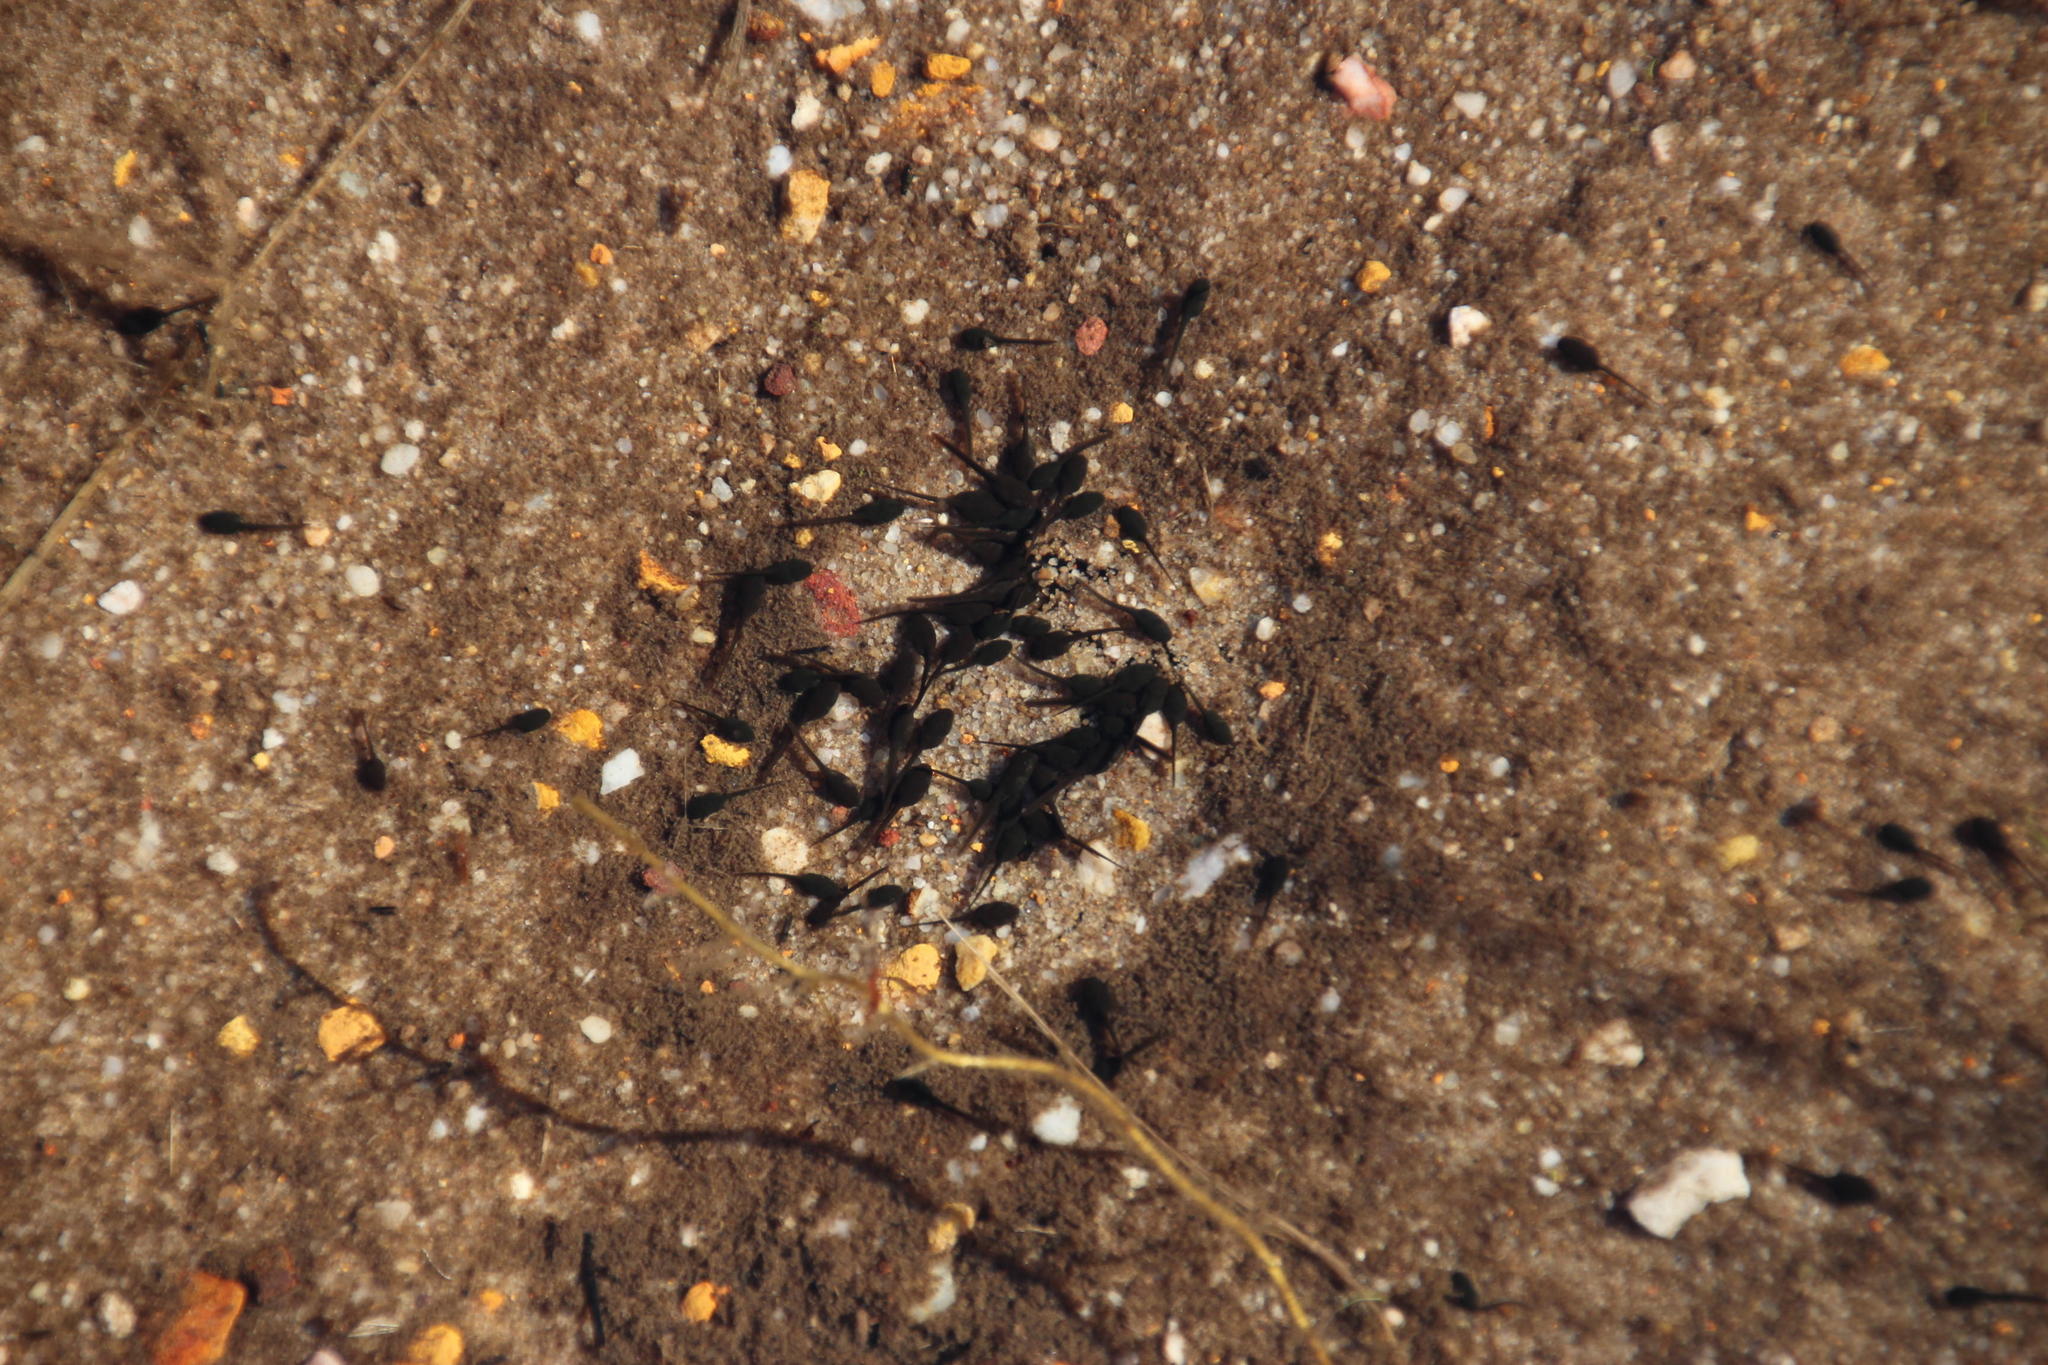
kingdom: Animalia
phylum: Chordata
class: Amphibia
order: Anura
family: Bufonidae
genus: Vandijkophrynus
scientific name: Vandijkophrynus angusticeps
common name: Sand toad
